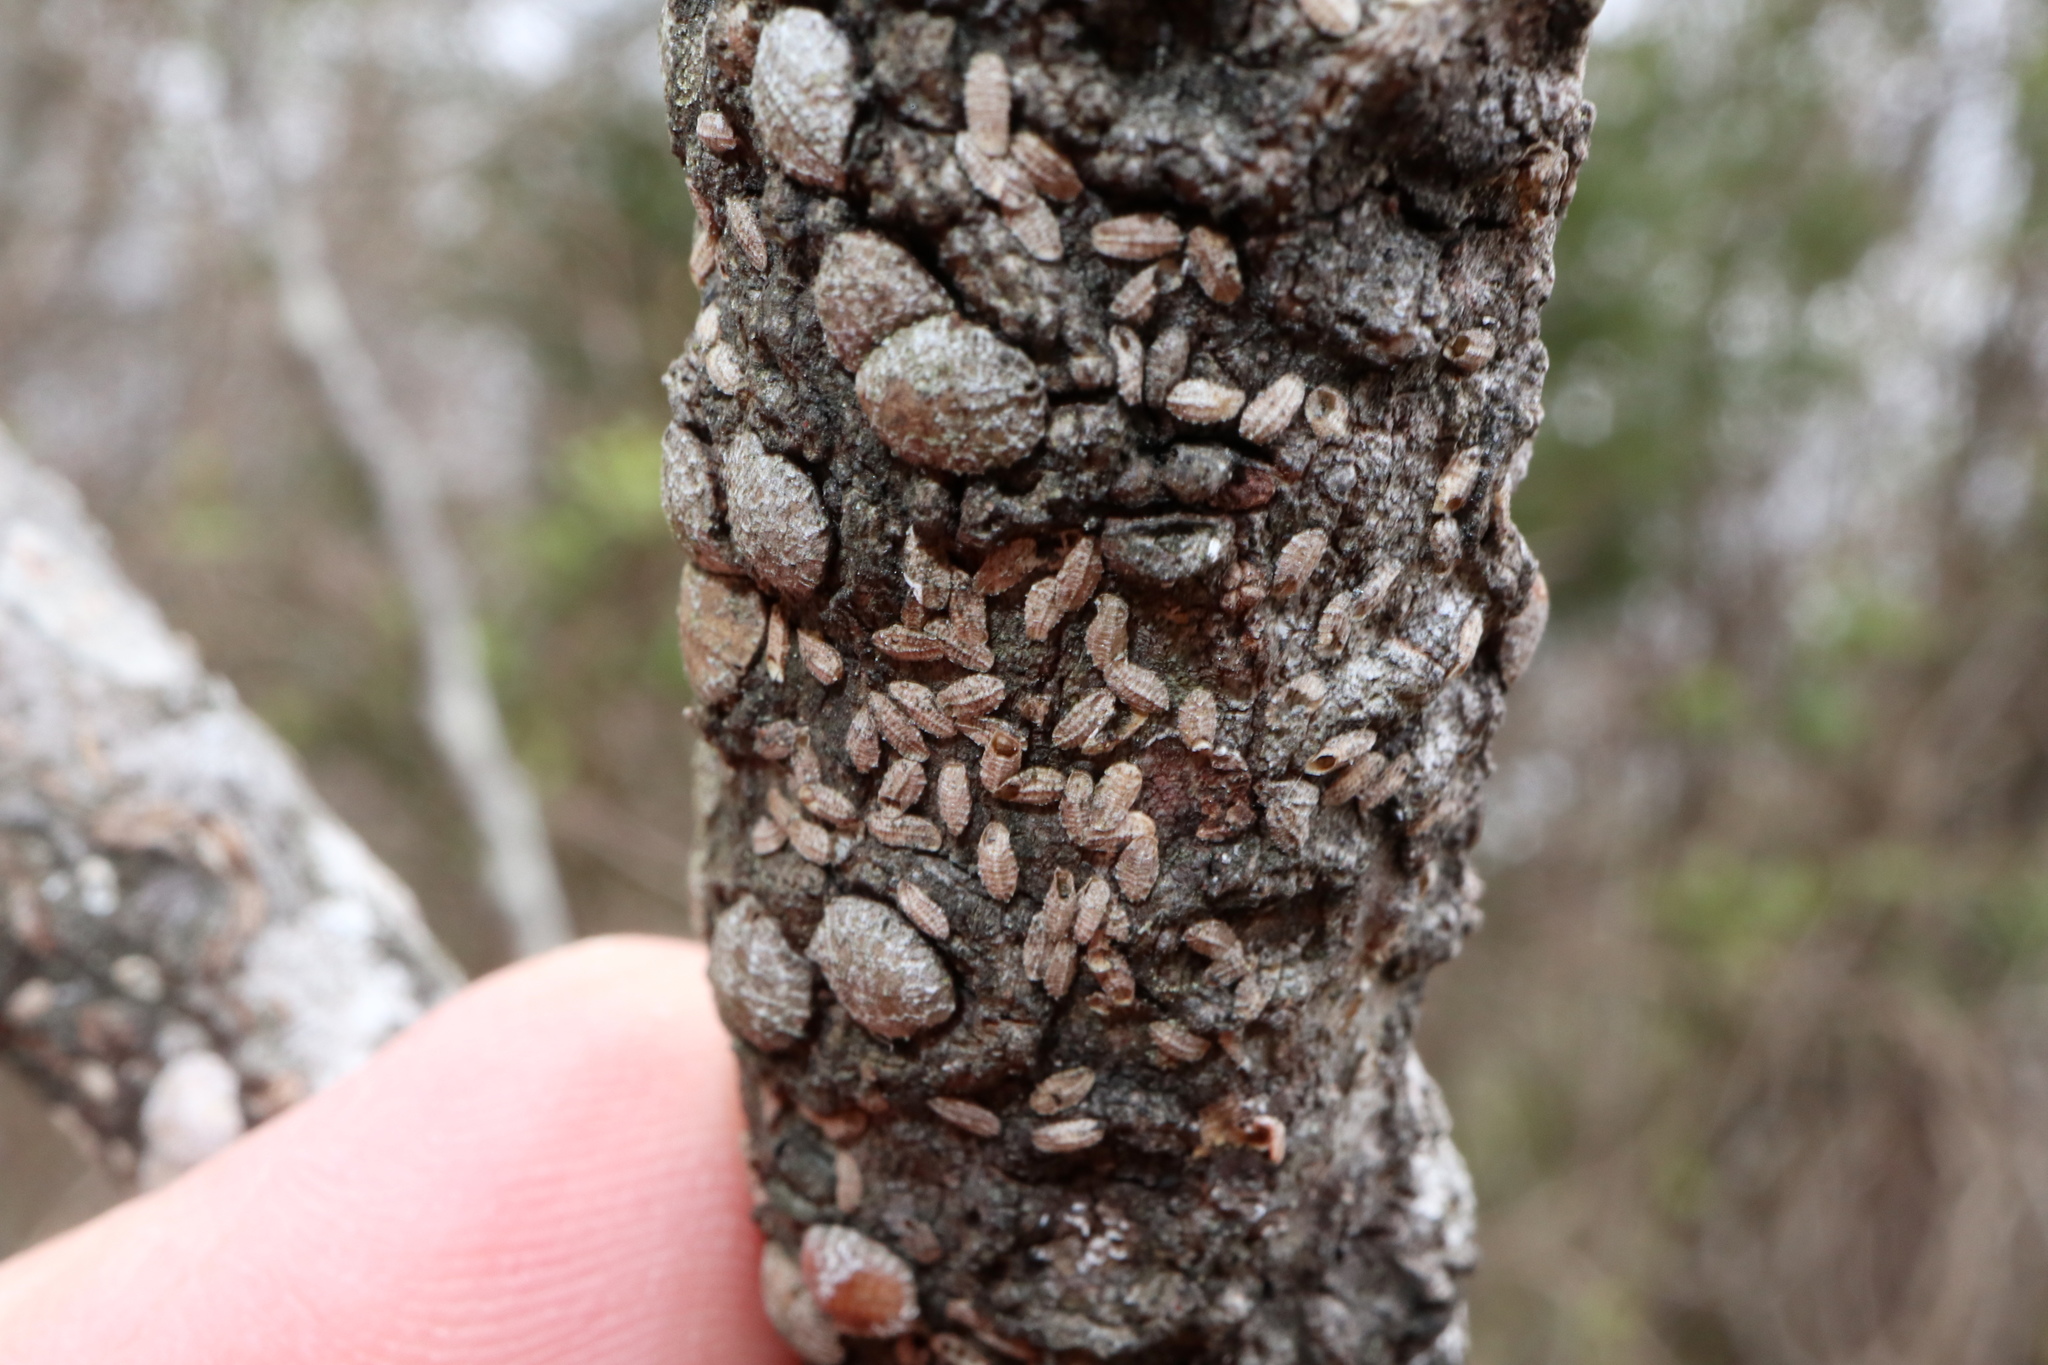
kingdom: Animalia
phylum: Arthropoda
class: Insecta
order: Hemiptera
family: Lecanodiaspididae
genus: Lecanodiaspis
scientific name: Lecanodiaspis prosopidis
